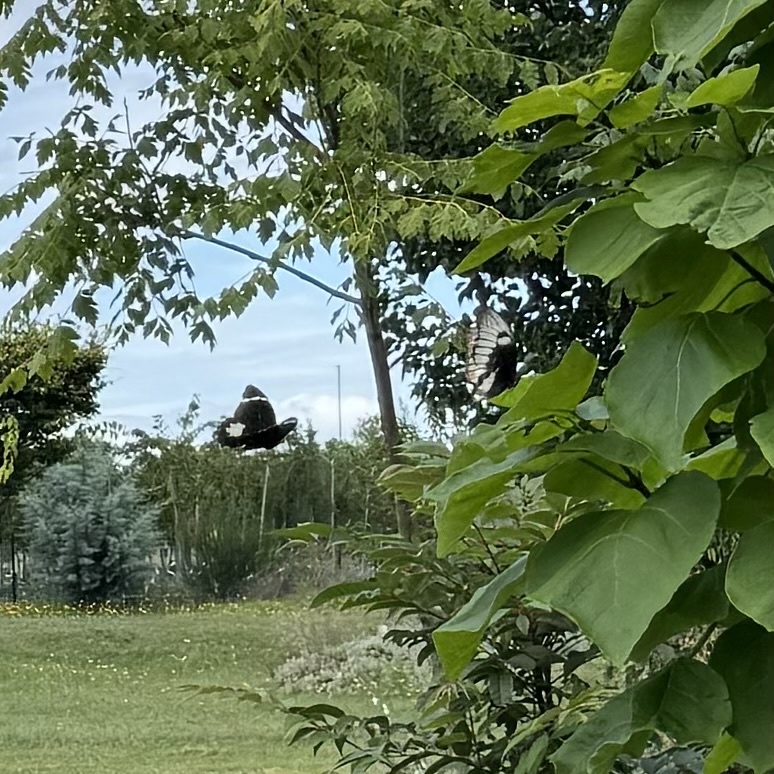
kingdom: Animalia
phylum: Arthropoda
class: Insecta
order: Lepidoptera
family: Papilionidae
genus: Papilio
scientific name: Papilio aegeus
